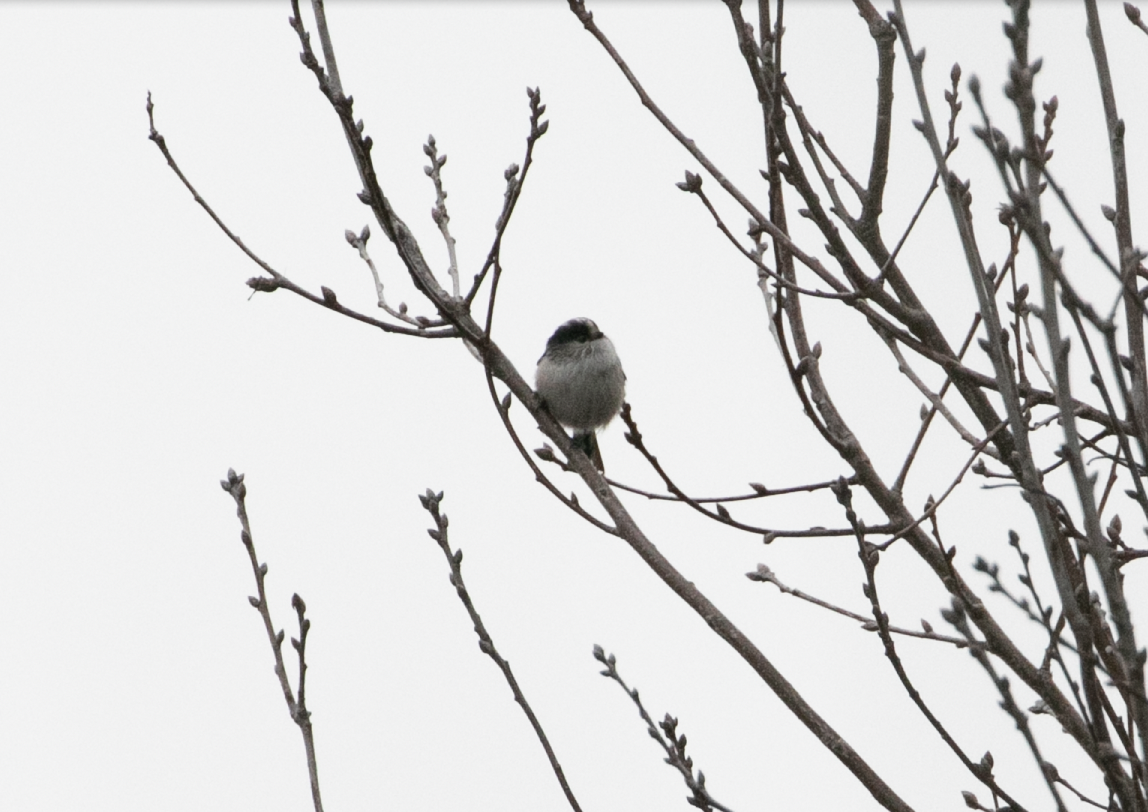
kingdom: Animalia
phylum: Chordata
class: Aves
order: Passeriformes
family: Aegithalidae
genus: Aegithalos
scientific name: Aegithalos caudatus
